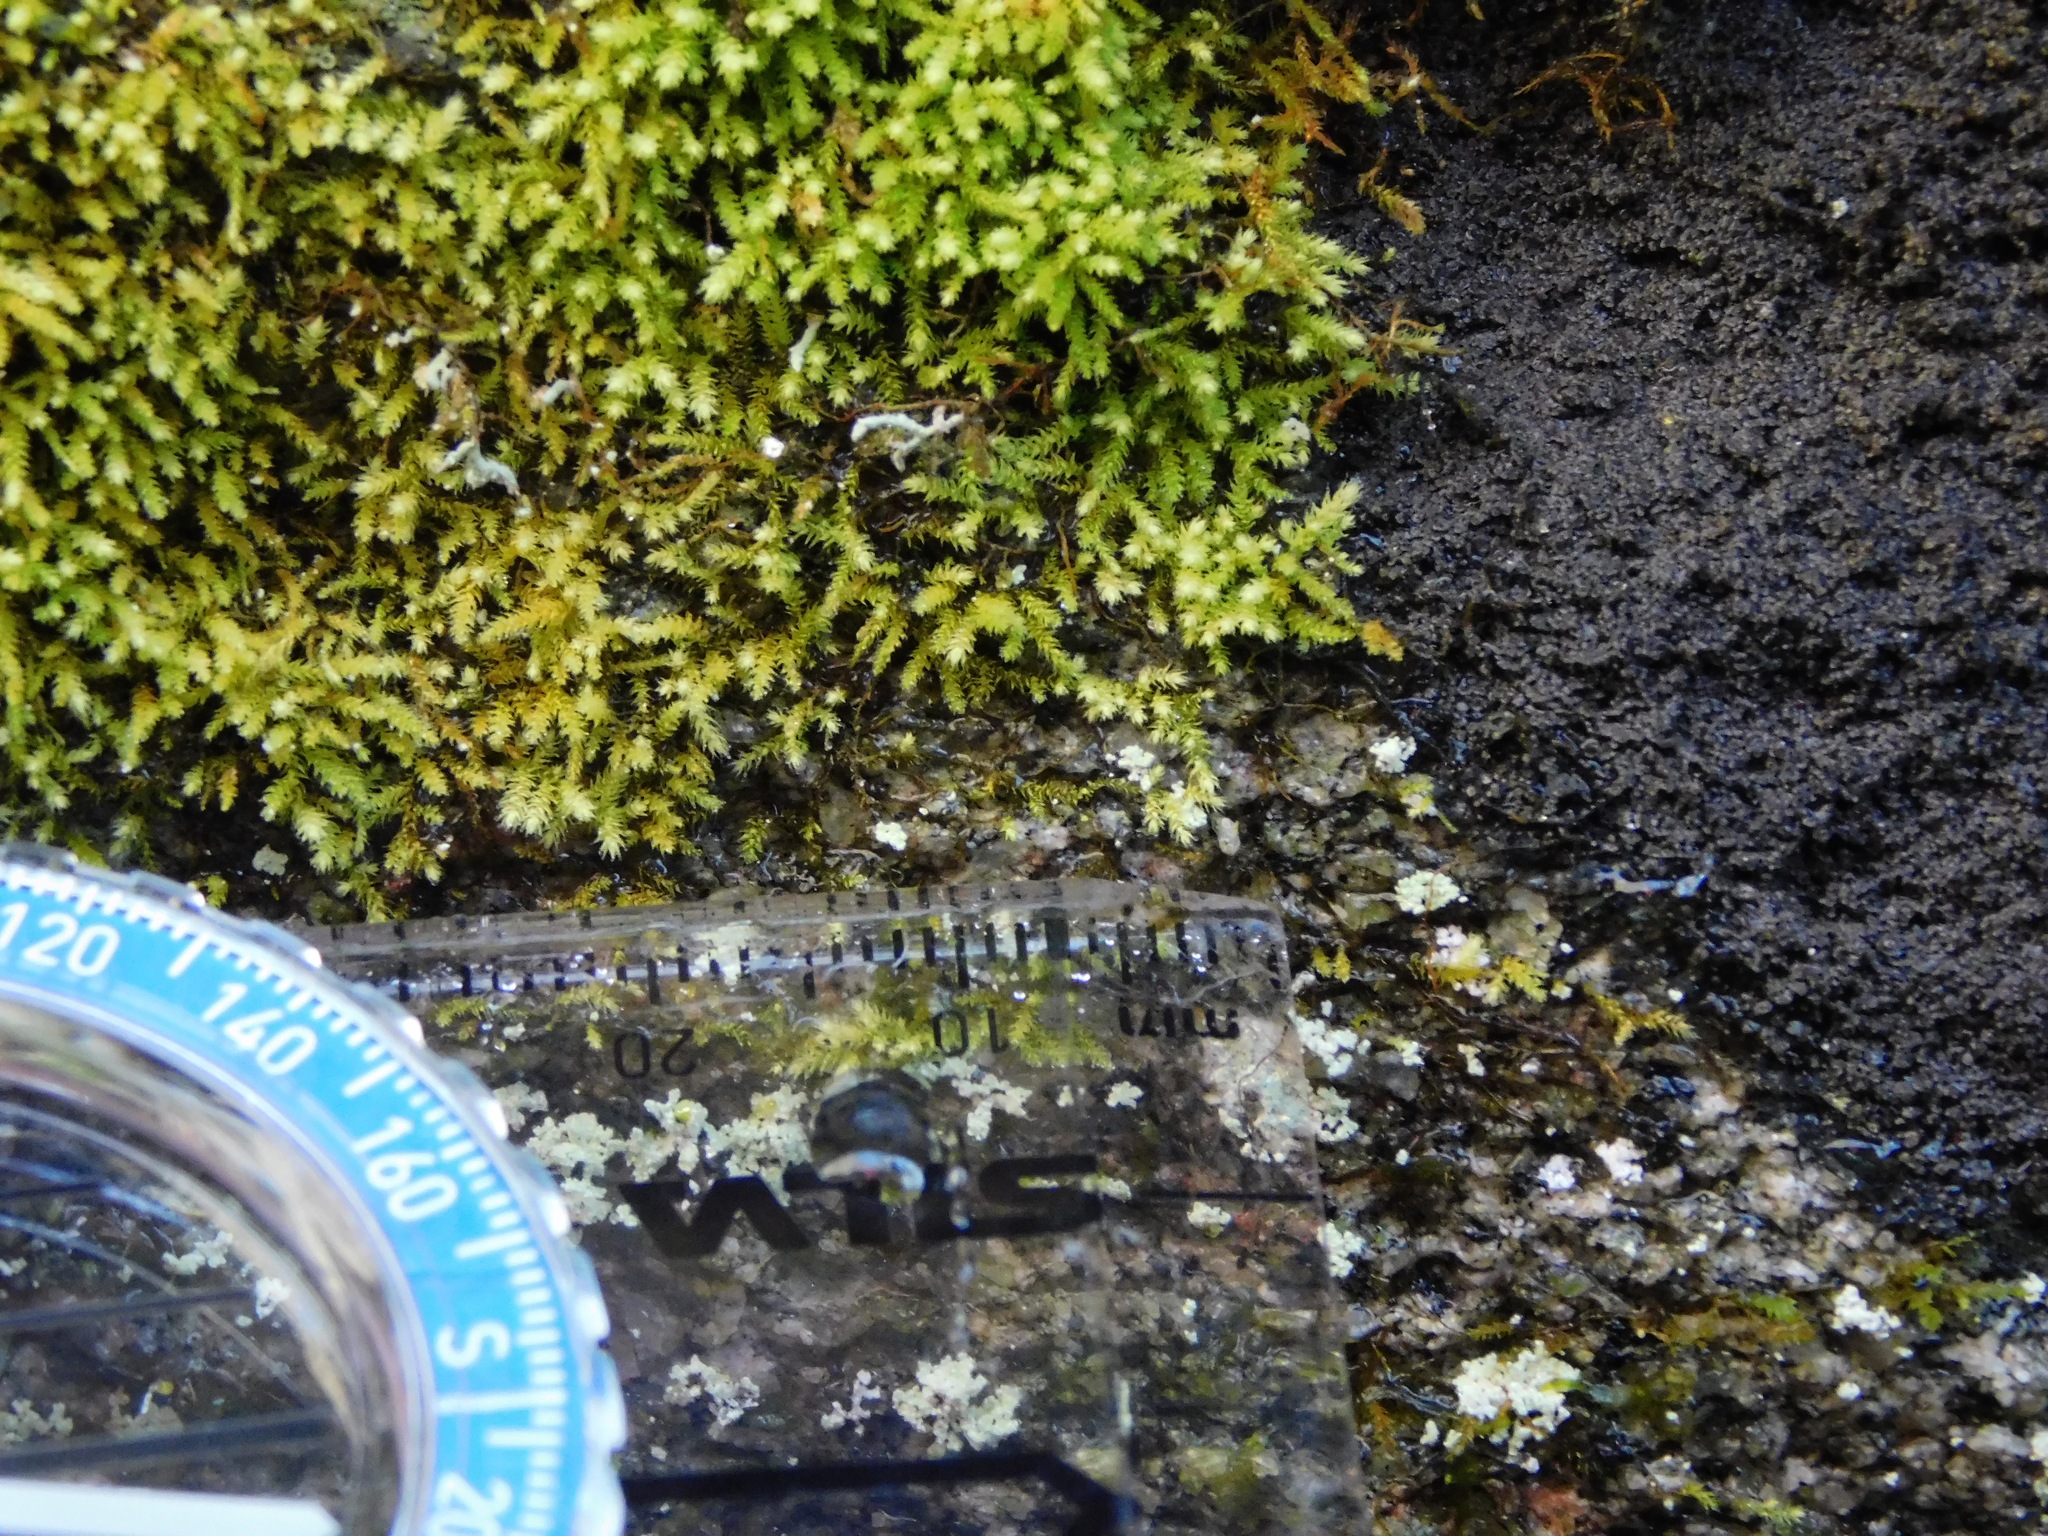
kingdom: Plantae
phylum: Bryophyta
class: Bryopsida
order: Bartramiales
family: Bartramiaceae
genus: Philonotis
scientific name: Philonotis fontana
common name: Fountain apple-moss
